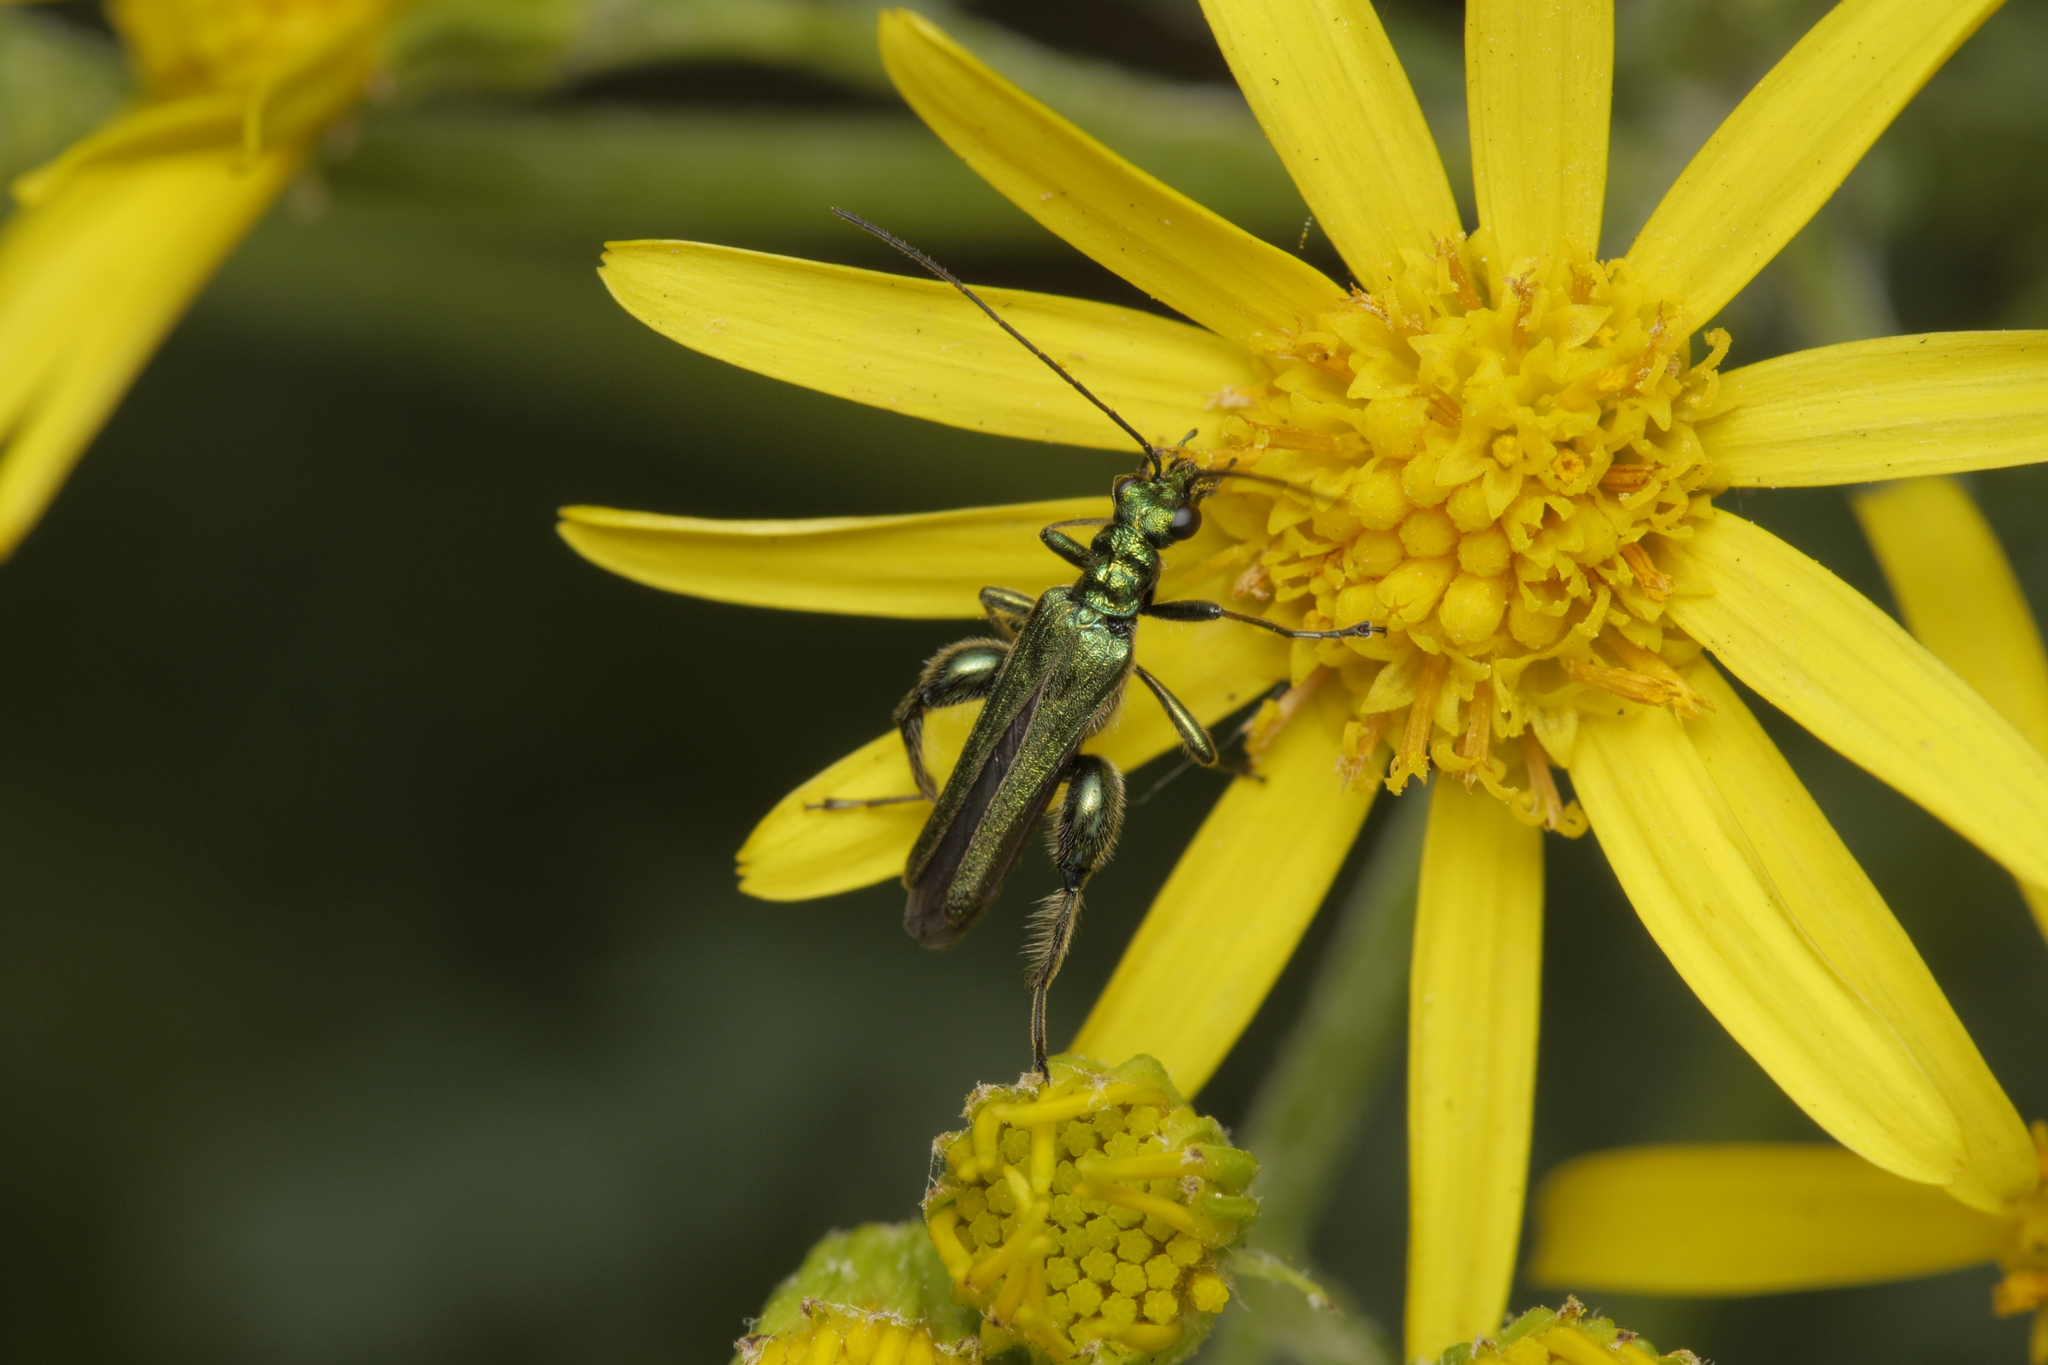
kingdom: Animalia
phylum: Arthropoda
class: Insecta
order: Coleoptera
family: Oedemeridae
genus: Oedemera
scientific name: Oedemera nobilis
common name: Swollen-thighed beetle
